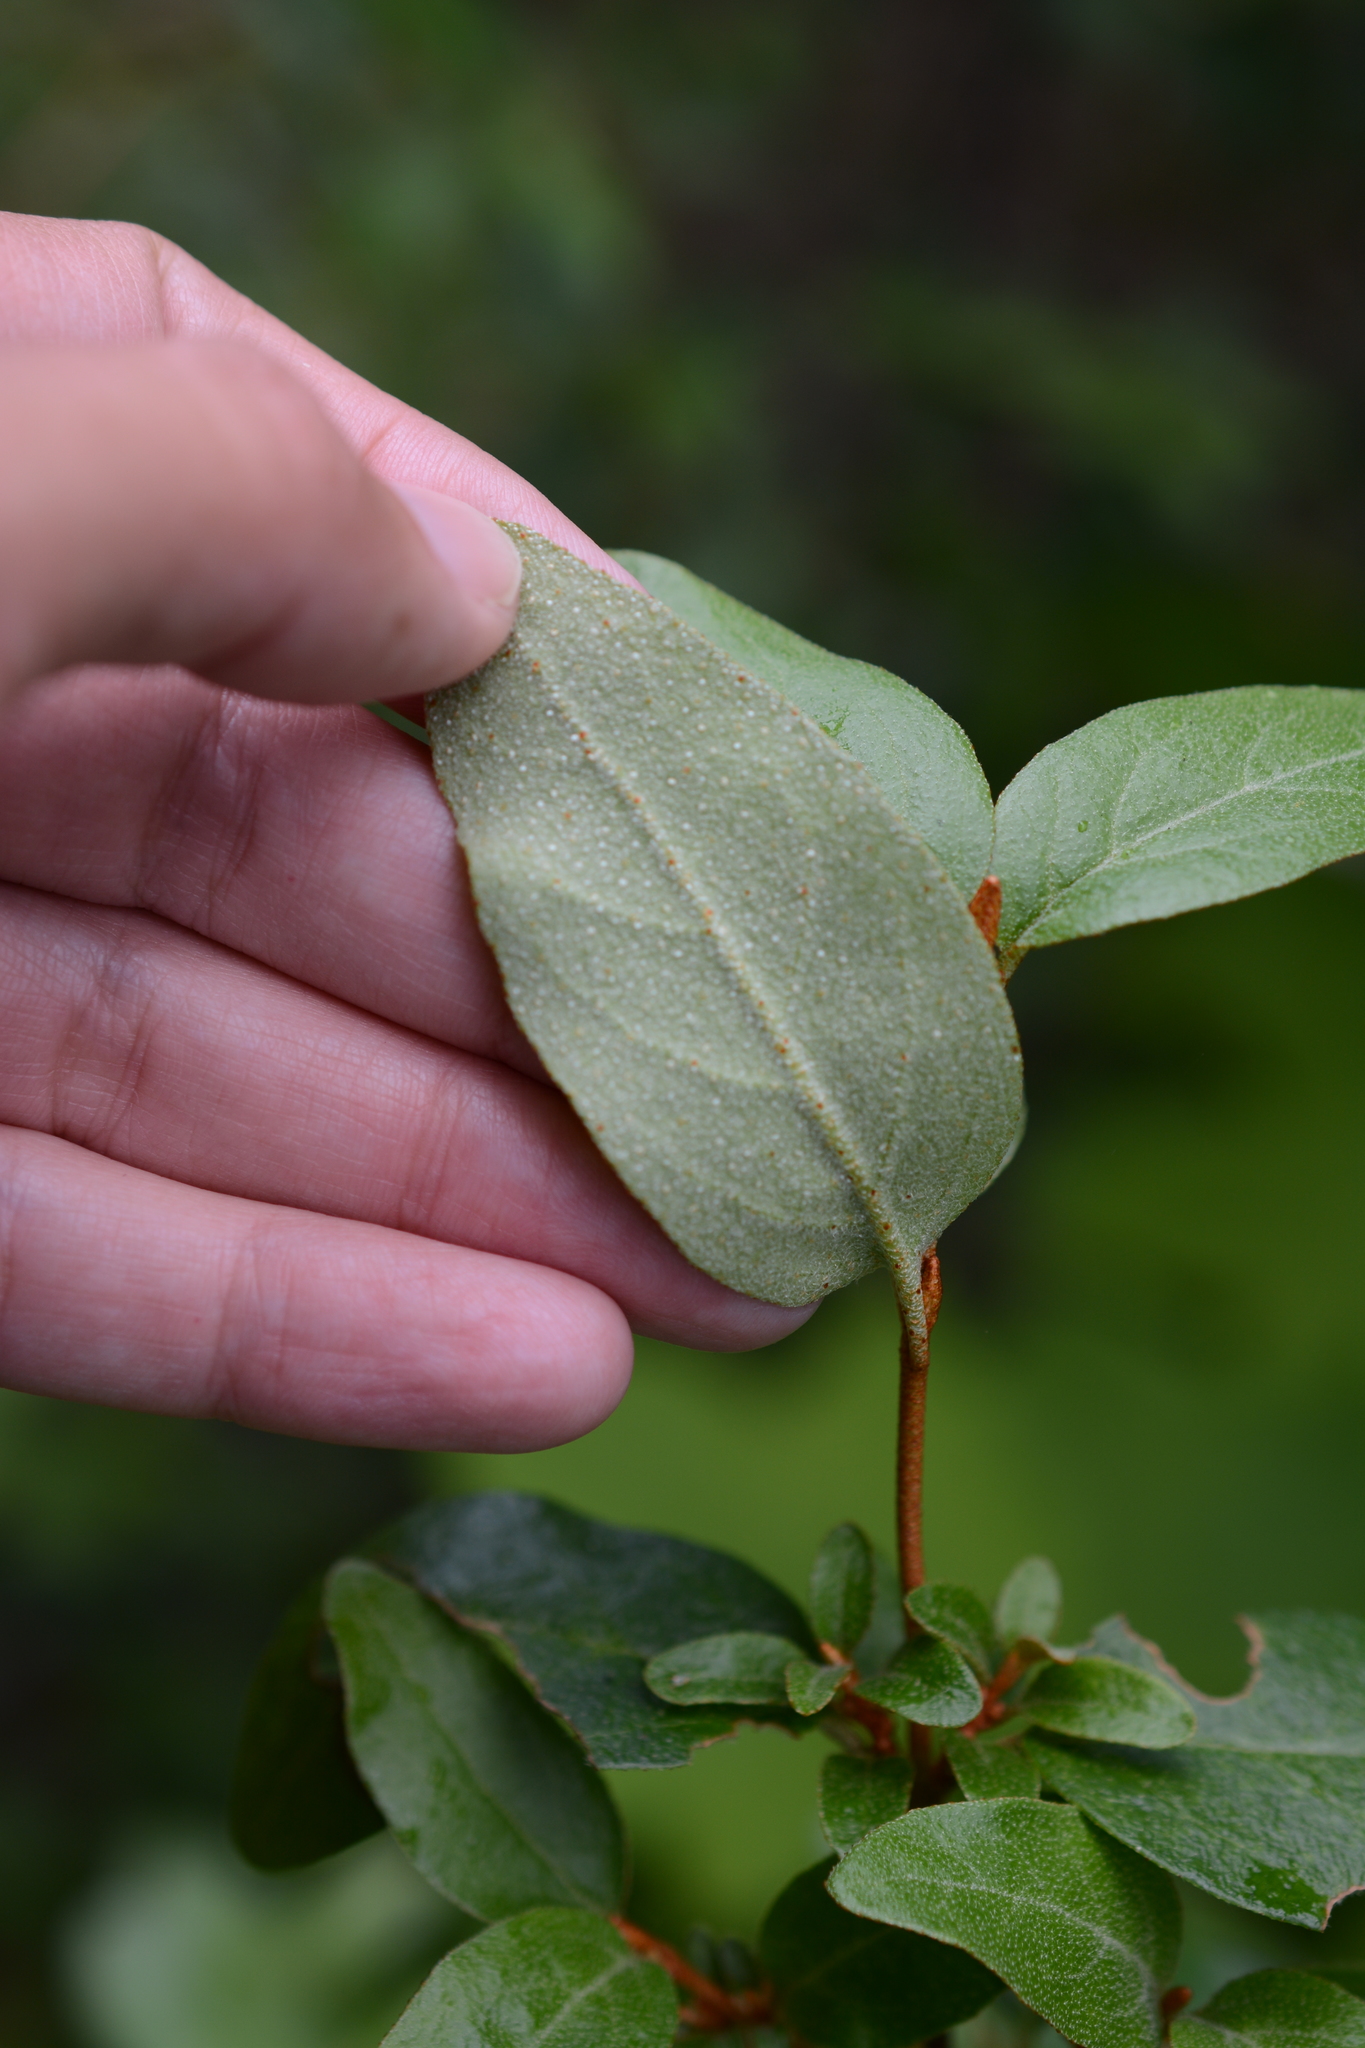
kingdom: Plantae
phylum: Tracheophyta
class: Magnoliopsida
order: Rosales
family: Elaeagnaceae
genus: Shepherdia
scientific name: Shepherdia canadensis
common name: Soapberry
